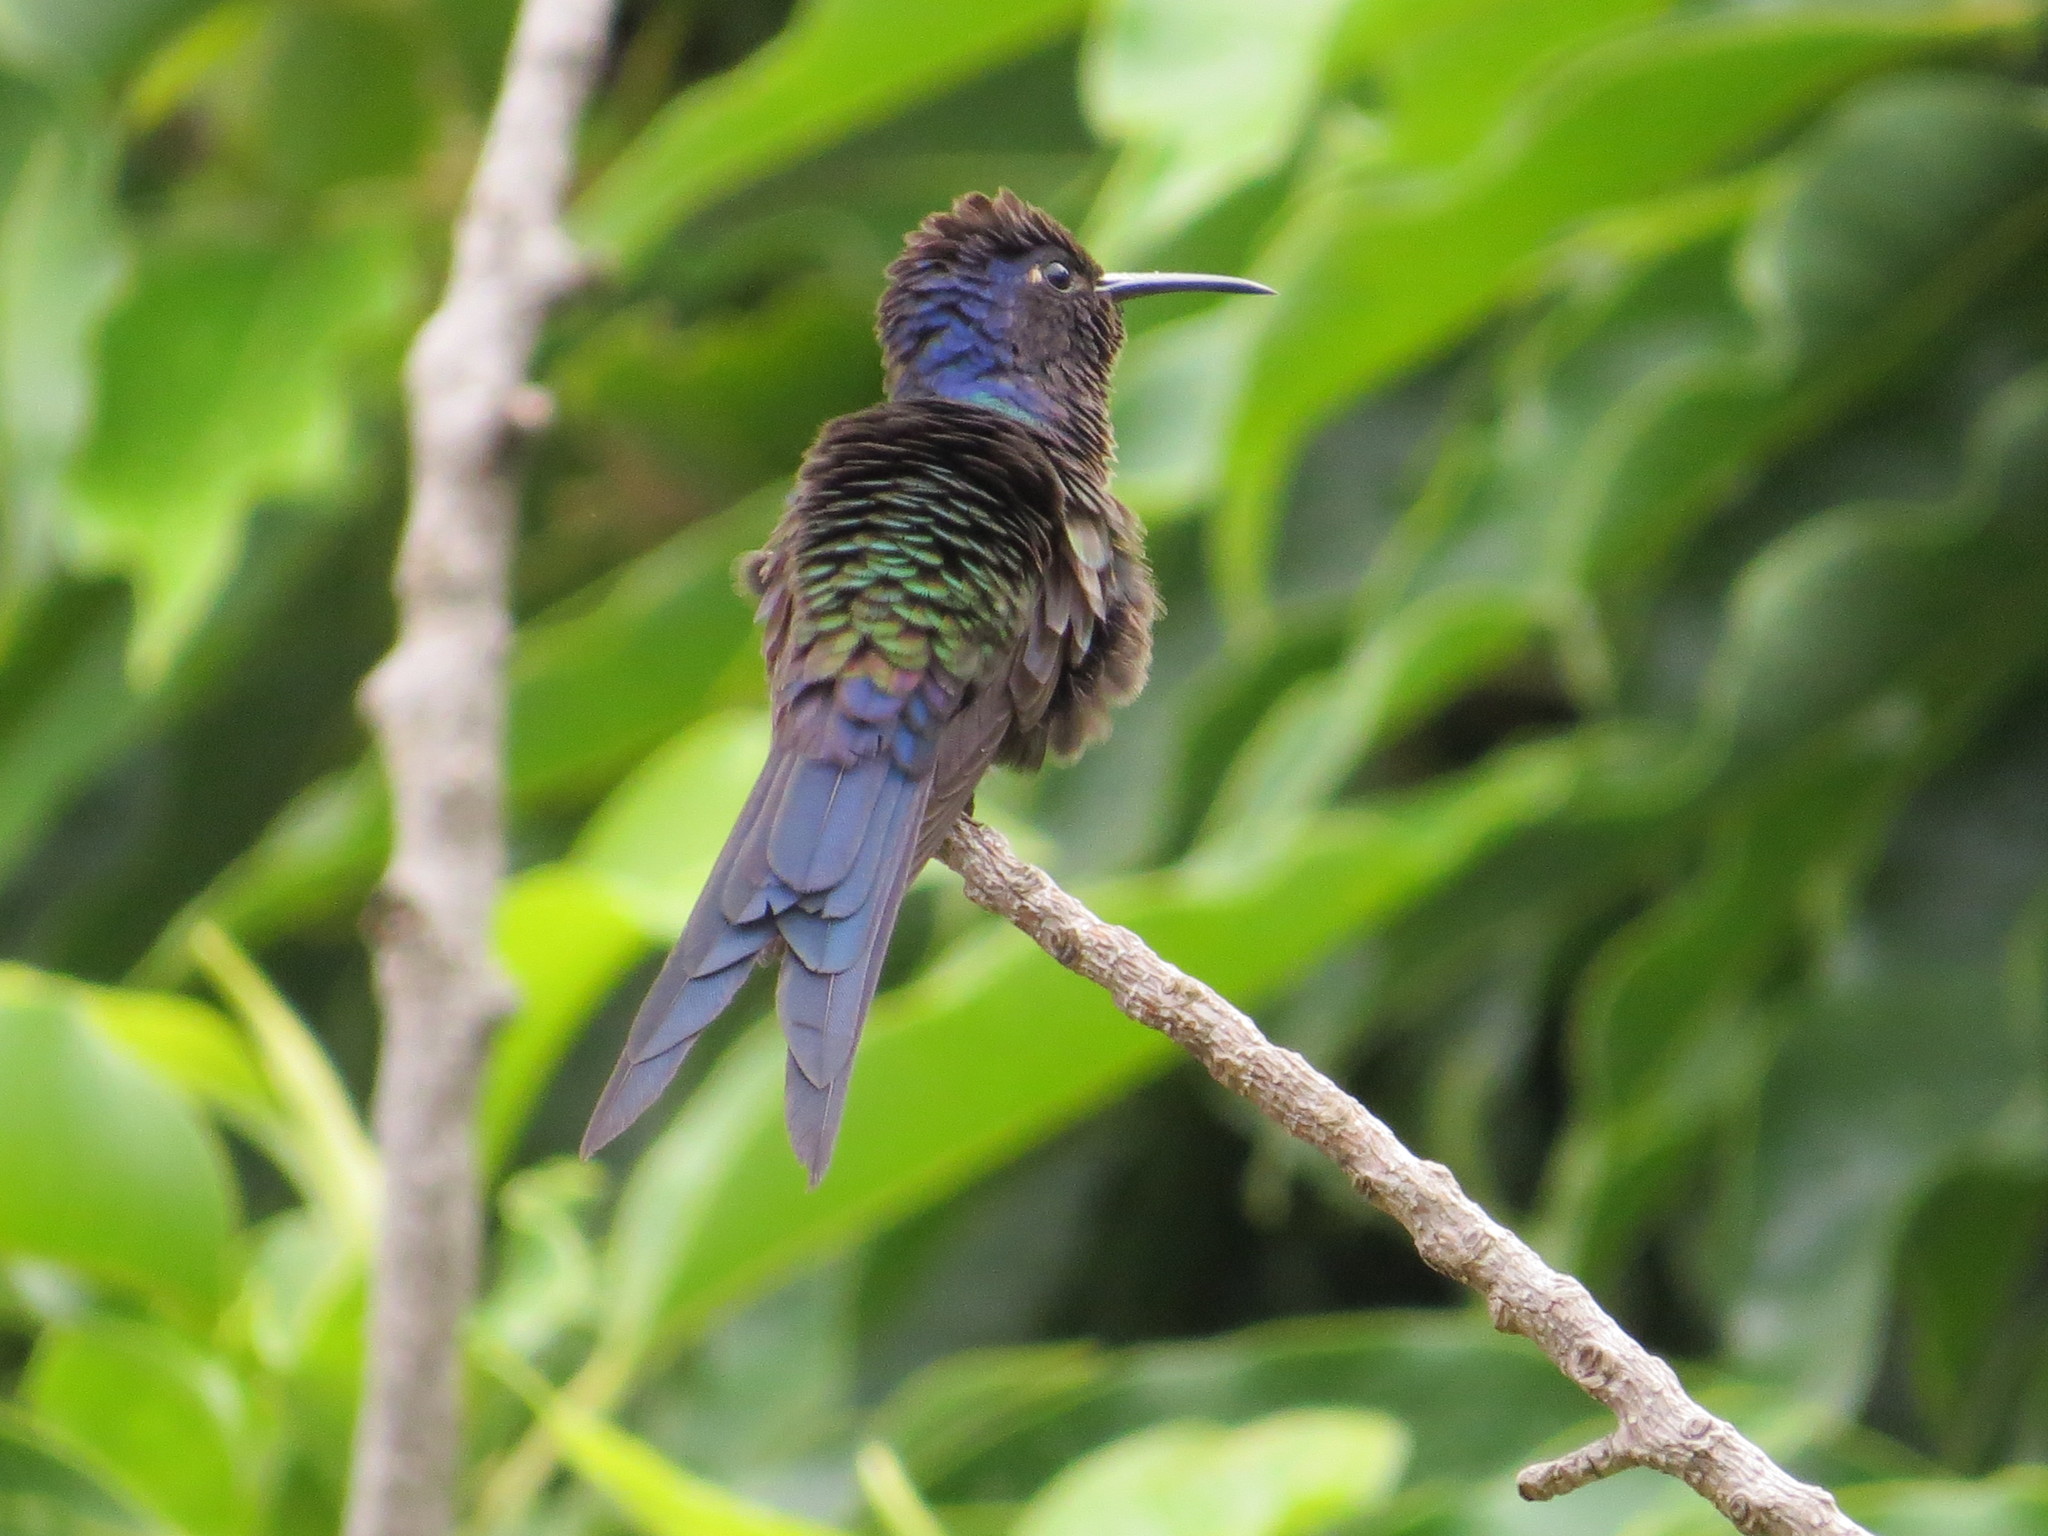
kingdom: Animalia
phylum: Chordata
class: Aves
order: Apodiformes
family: Trochilidae
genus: Eupetomena
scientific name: Eupetomena macroura
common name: Swallow-tailed hummingbird
